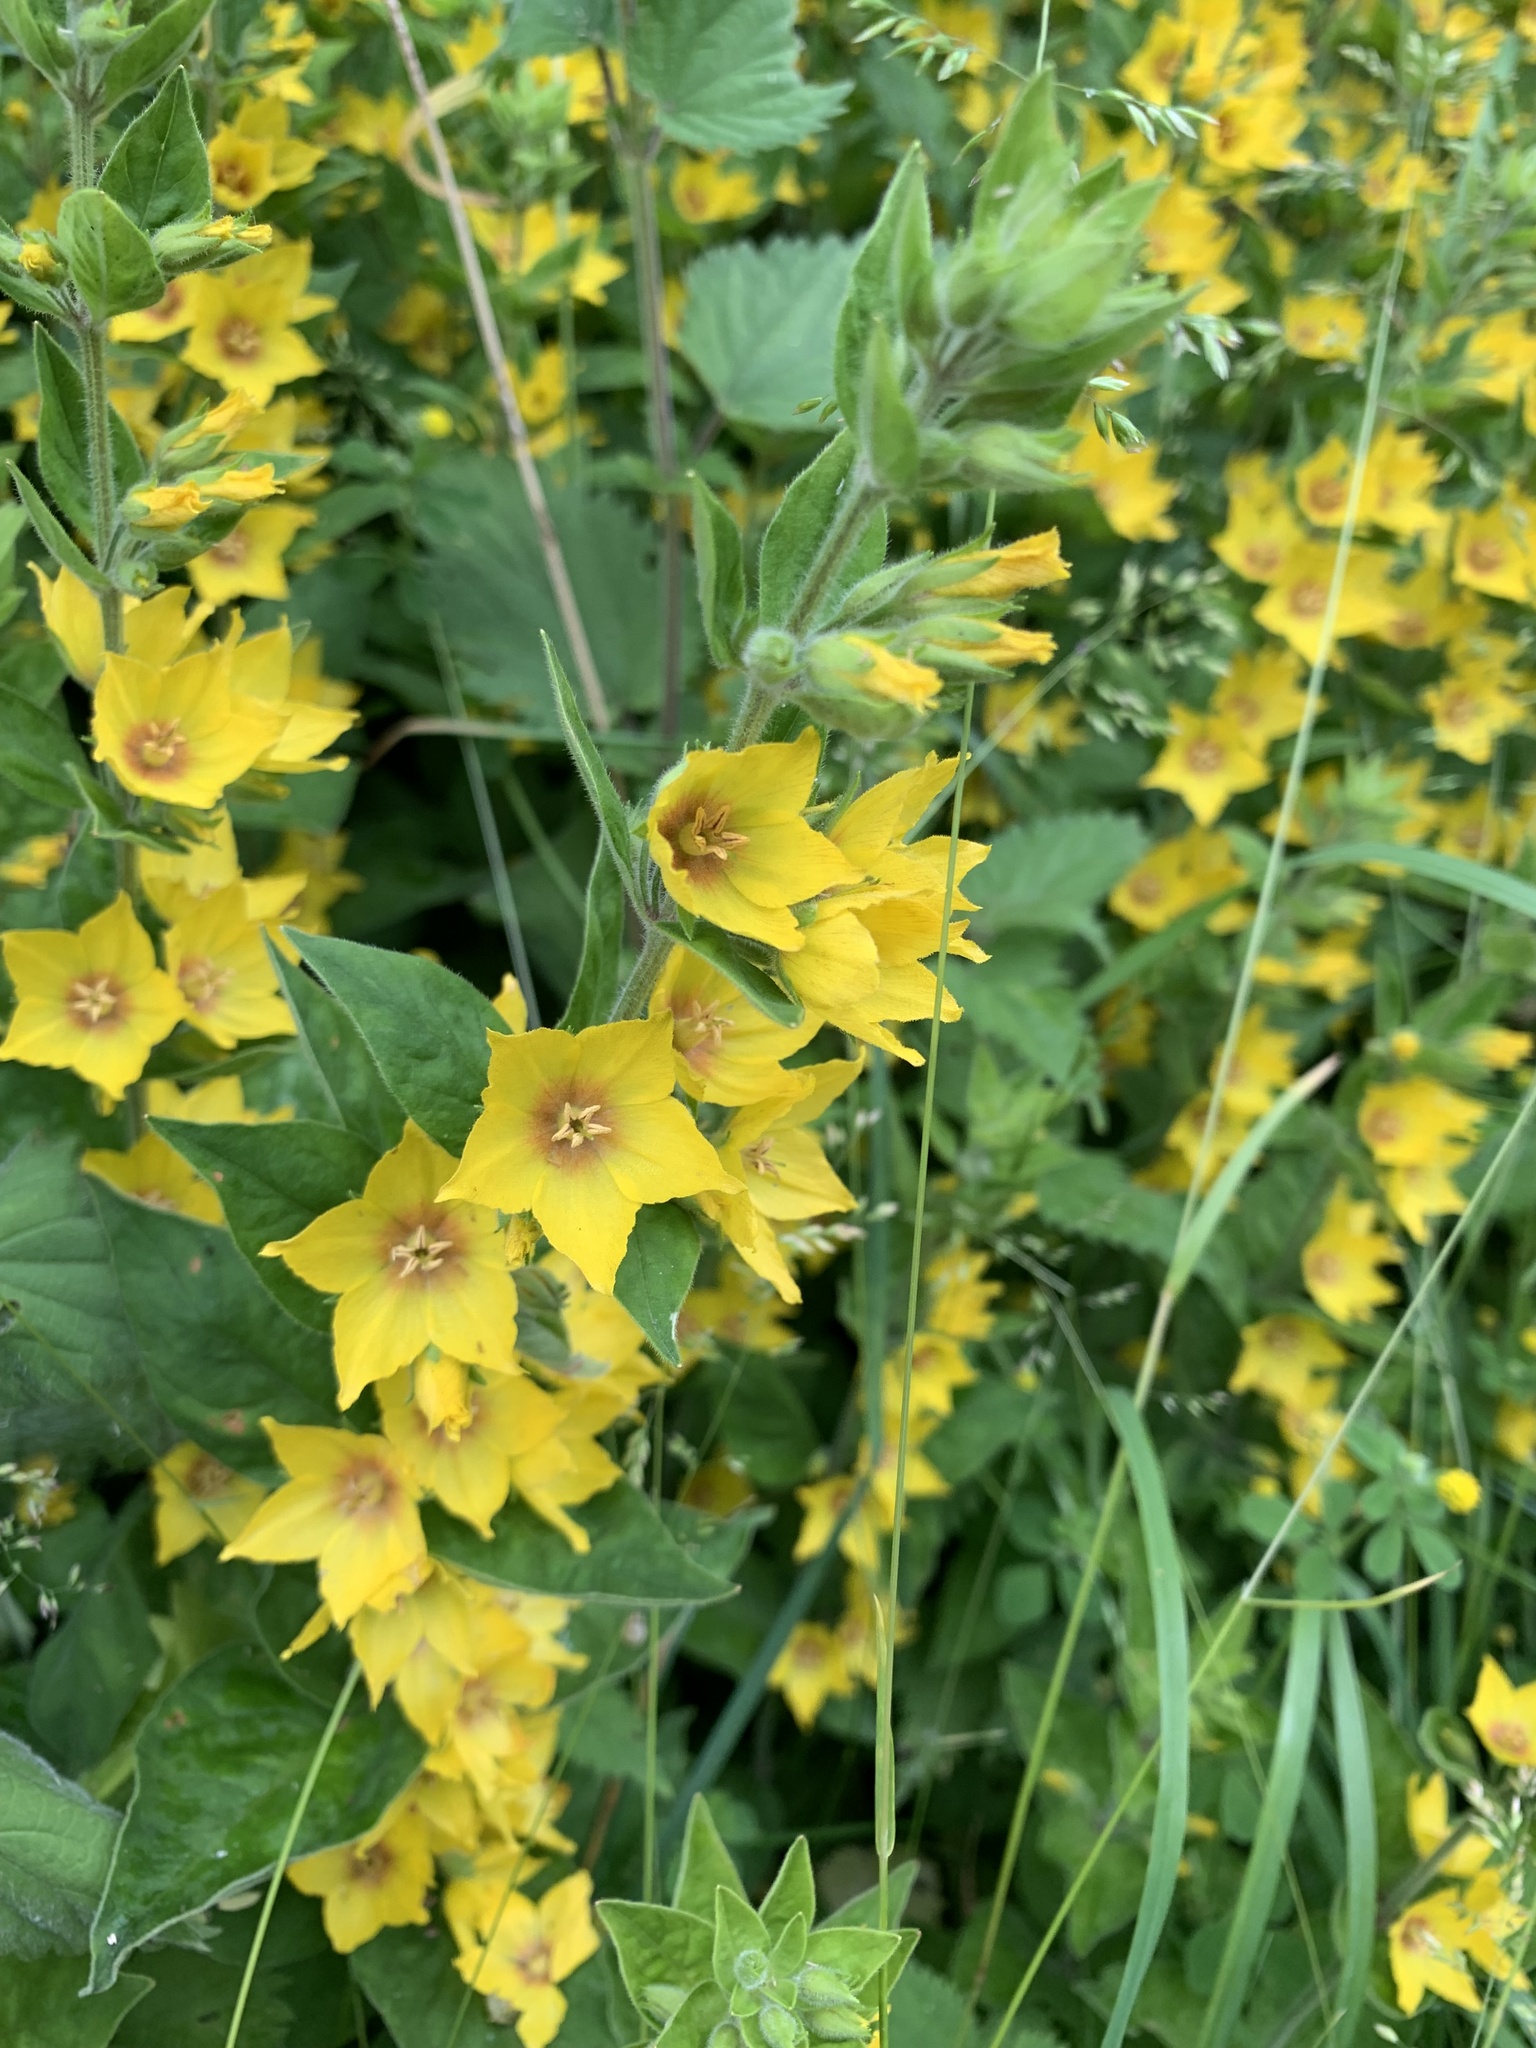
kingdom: Plantae
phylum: Tracheophyta
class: Magnoliopsida
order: Ericales
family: Primulaceae
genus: Lysimachia
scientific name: Lysimachia punctata
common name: Dotted loosestrife
